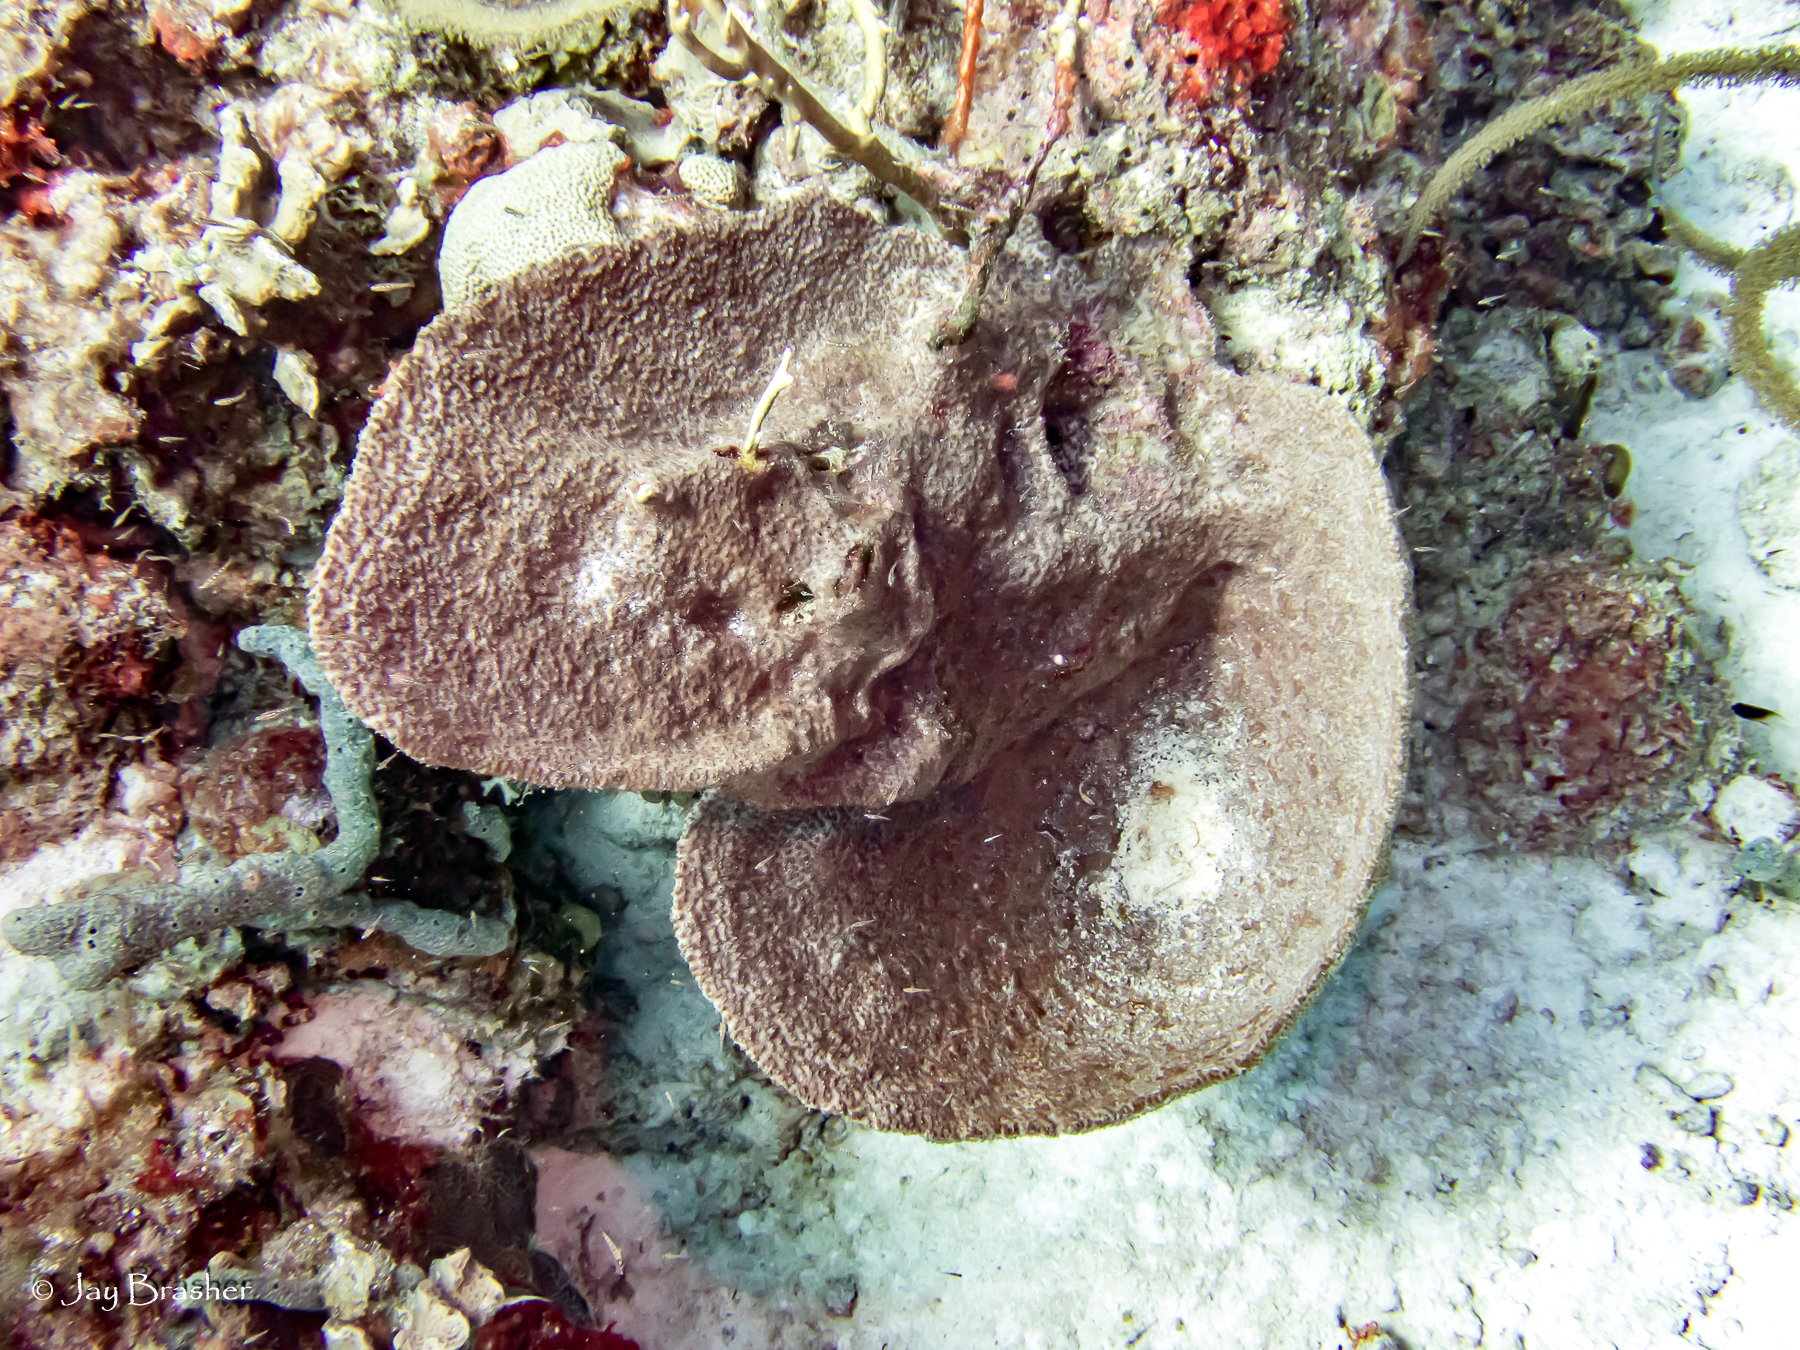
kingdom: Animalia
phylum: Porifera
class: Demospongiae
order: Haplosclerida
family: Niphatidae
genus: Niphates
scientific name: Niphates erecta
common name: Lavender rope sponge
